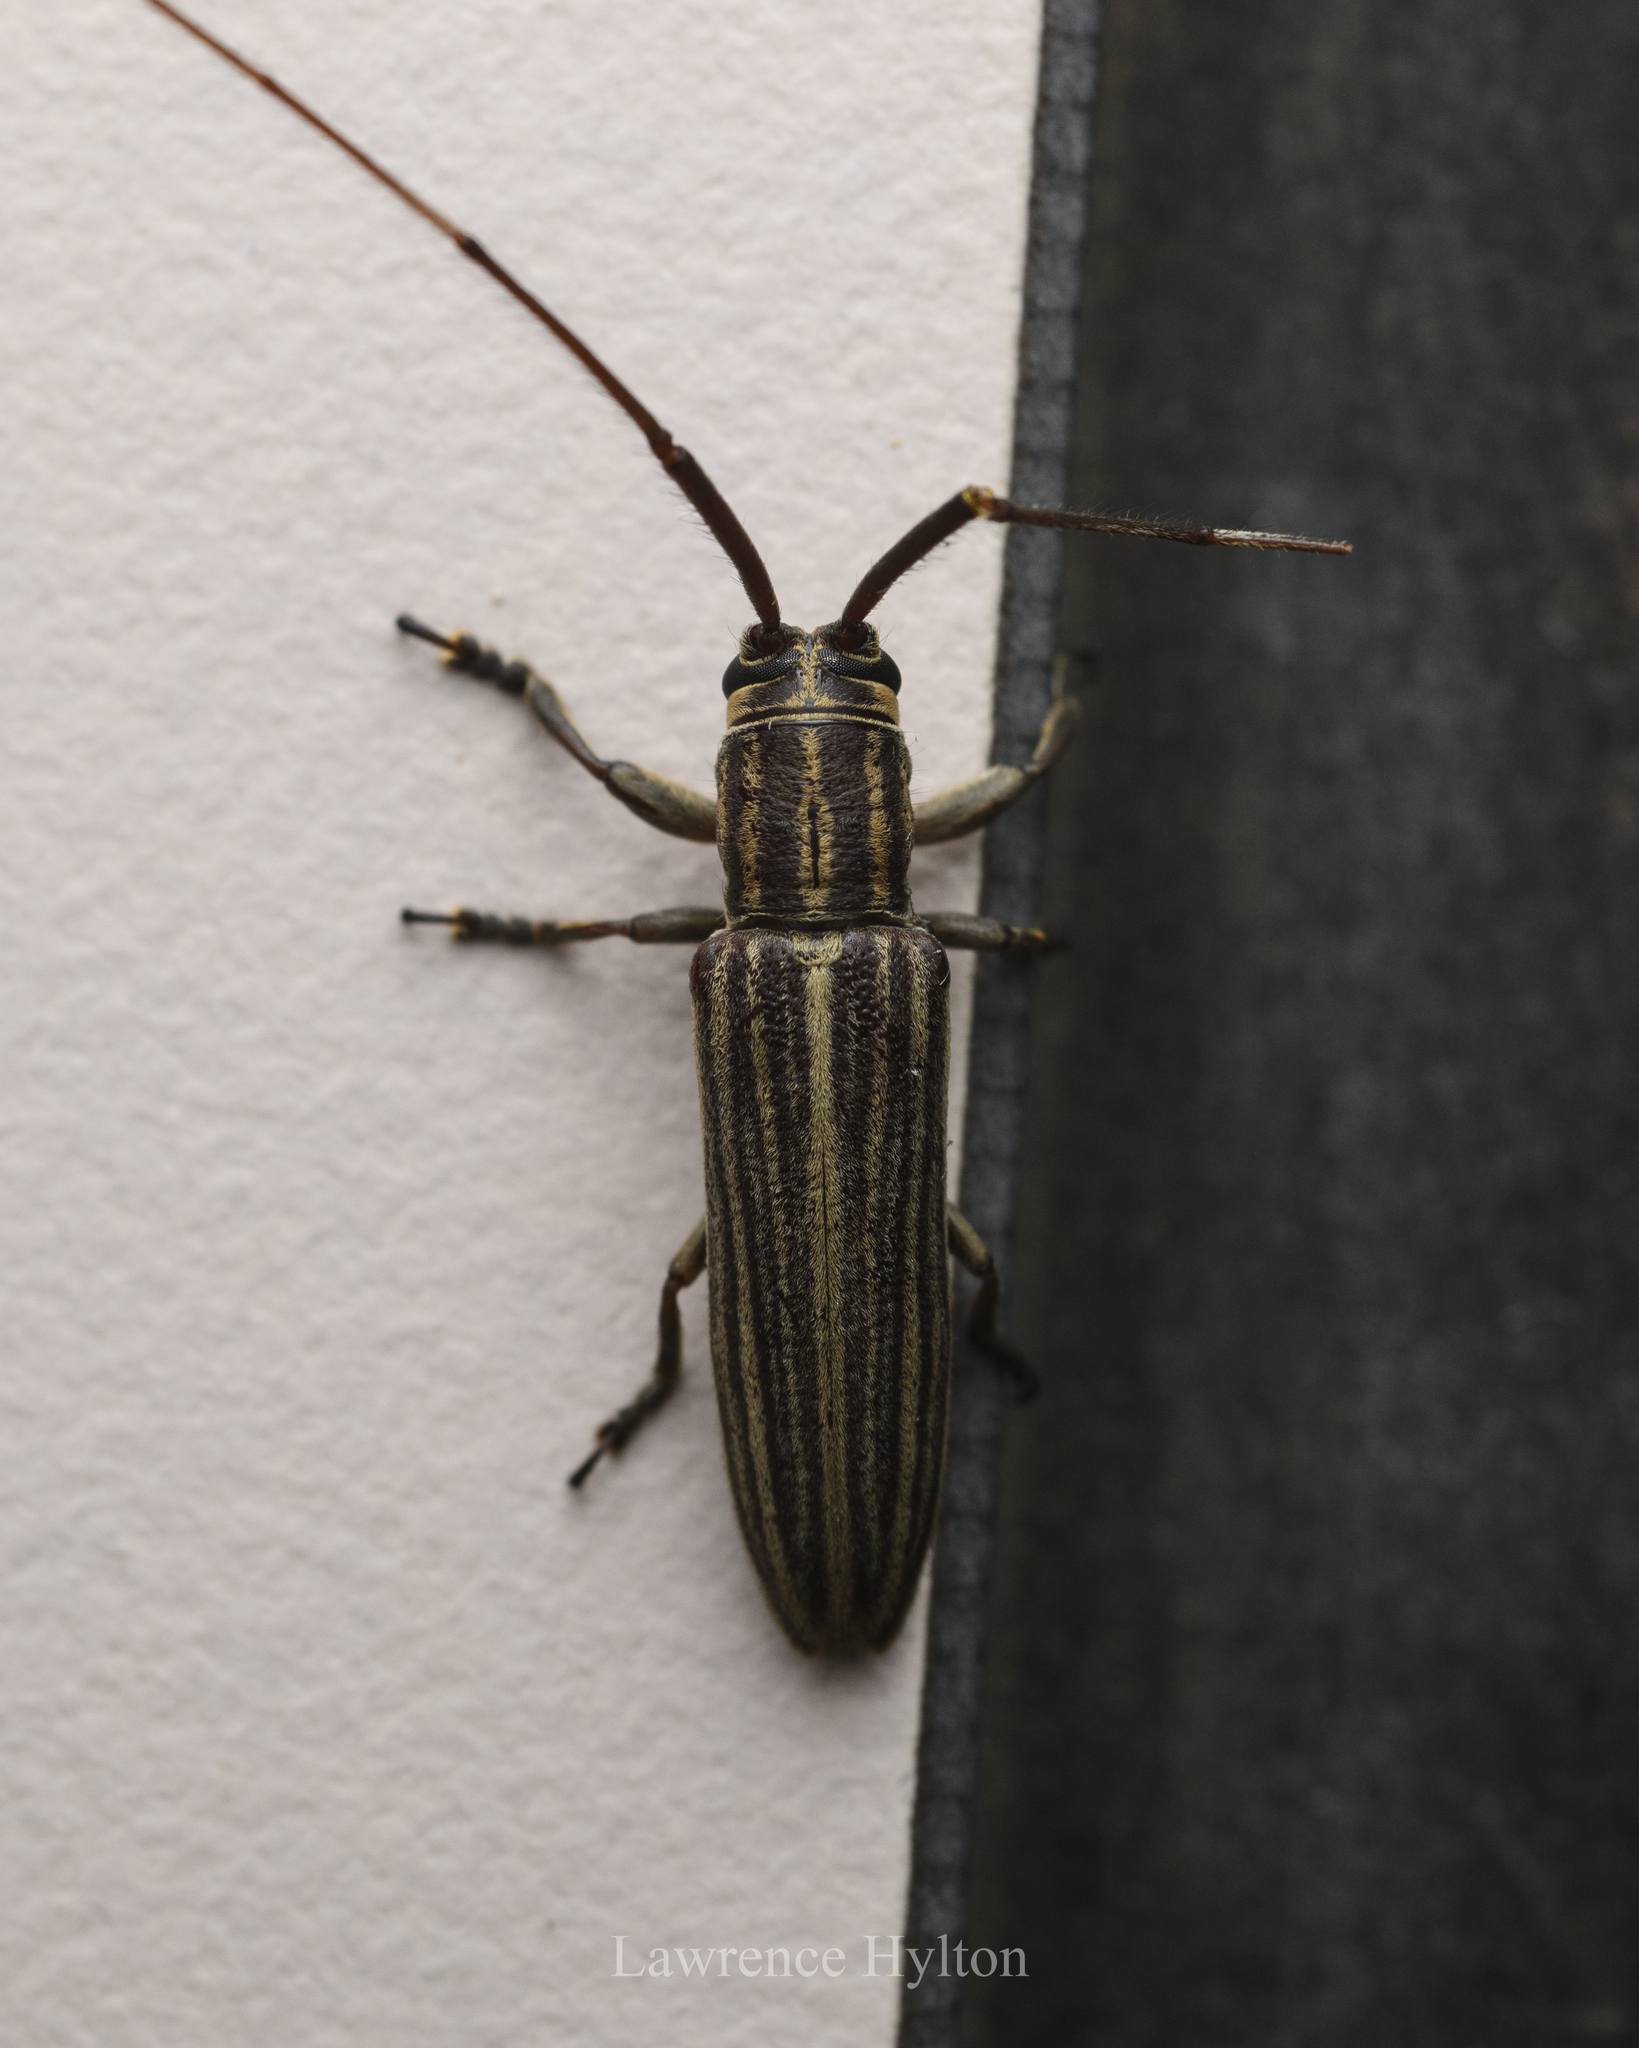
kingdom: Animalia
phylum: Arthropoda
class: Insecta
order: Coleoptera
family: Cerambycidae
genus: Pothyne
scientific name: Pothyne rugifrons
